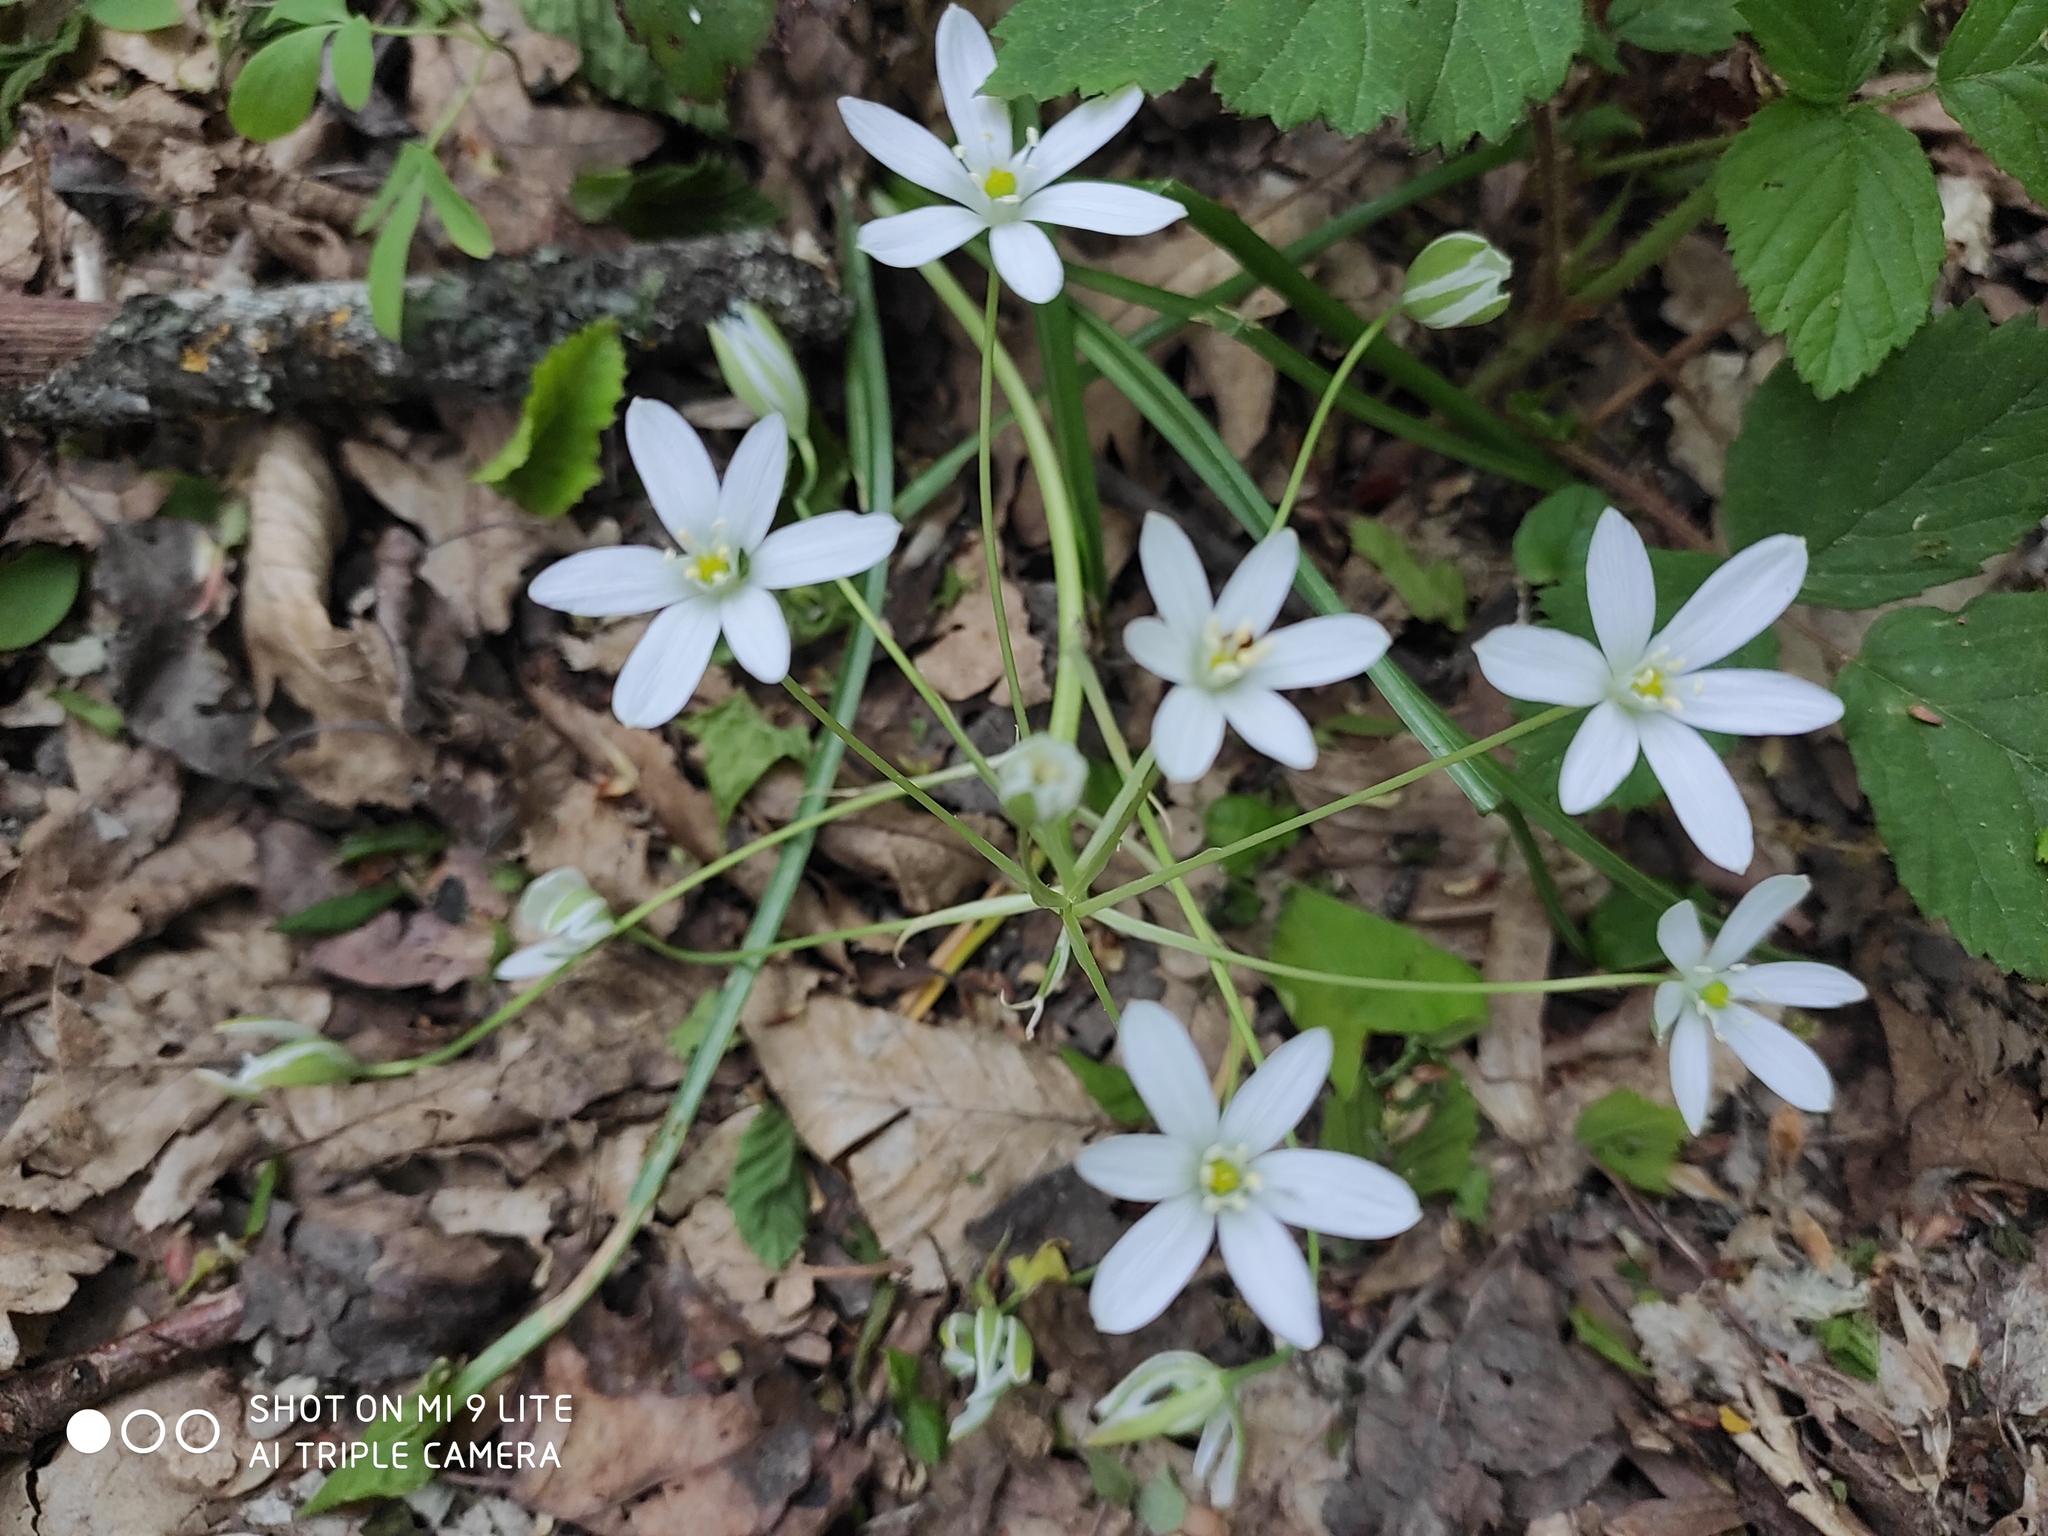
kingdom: Plantae
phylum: Tracheophyta
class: Liliopsida
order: Asparagales
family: Asparagaceae
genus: Ornithogalum
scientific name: Ornithogalum woronowii
